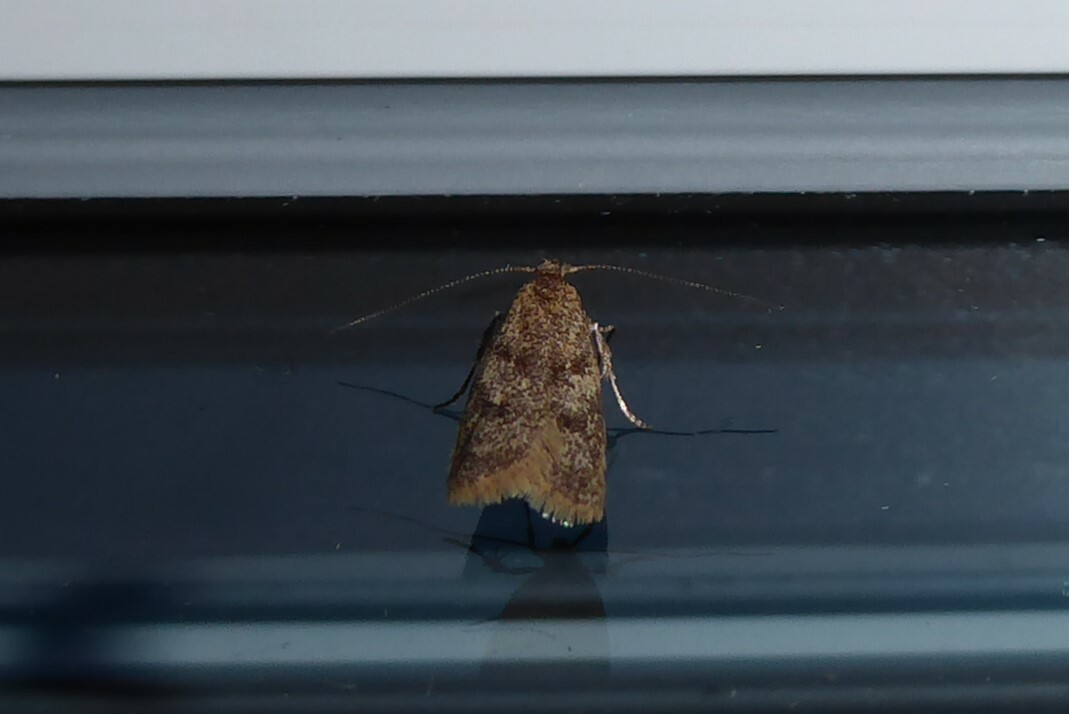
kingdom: Animalia
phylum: Arthropoda
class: Insecta
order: Lepidoptera
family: Oecophoridae
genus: Gymnobathra
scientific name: Gymnobathra tholodella
